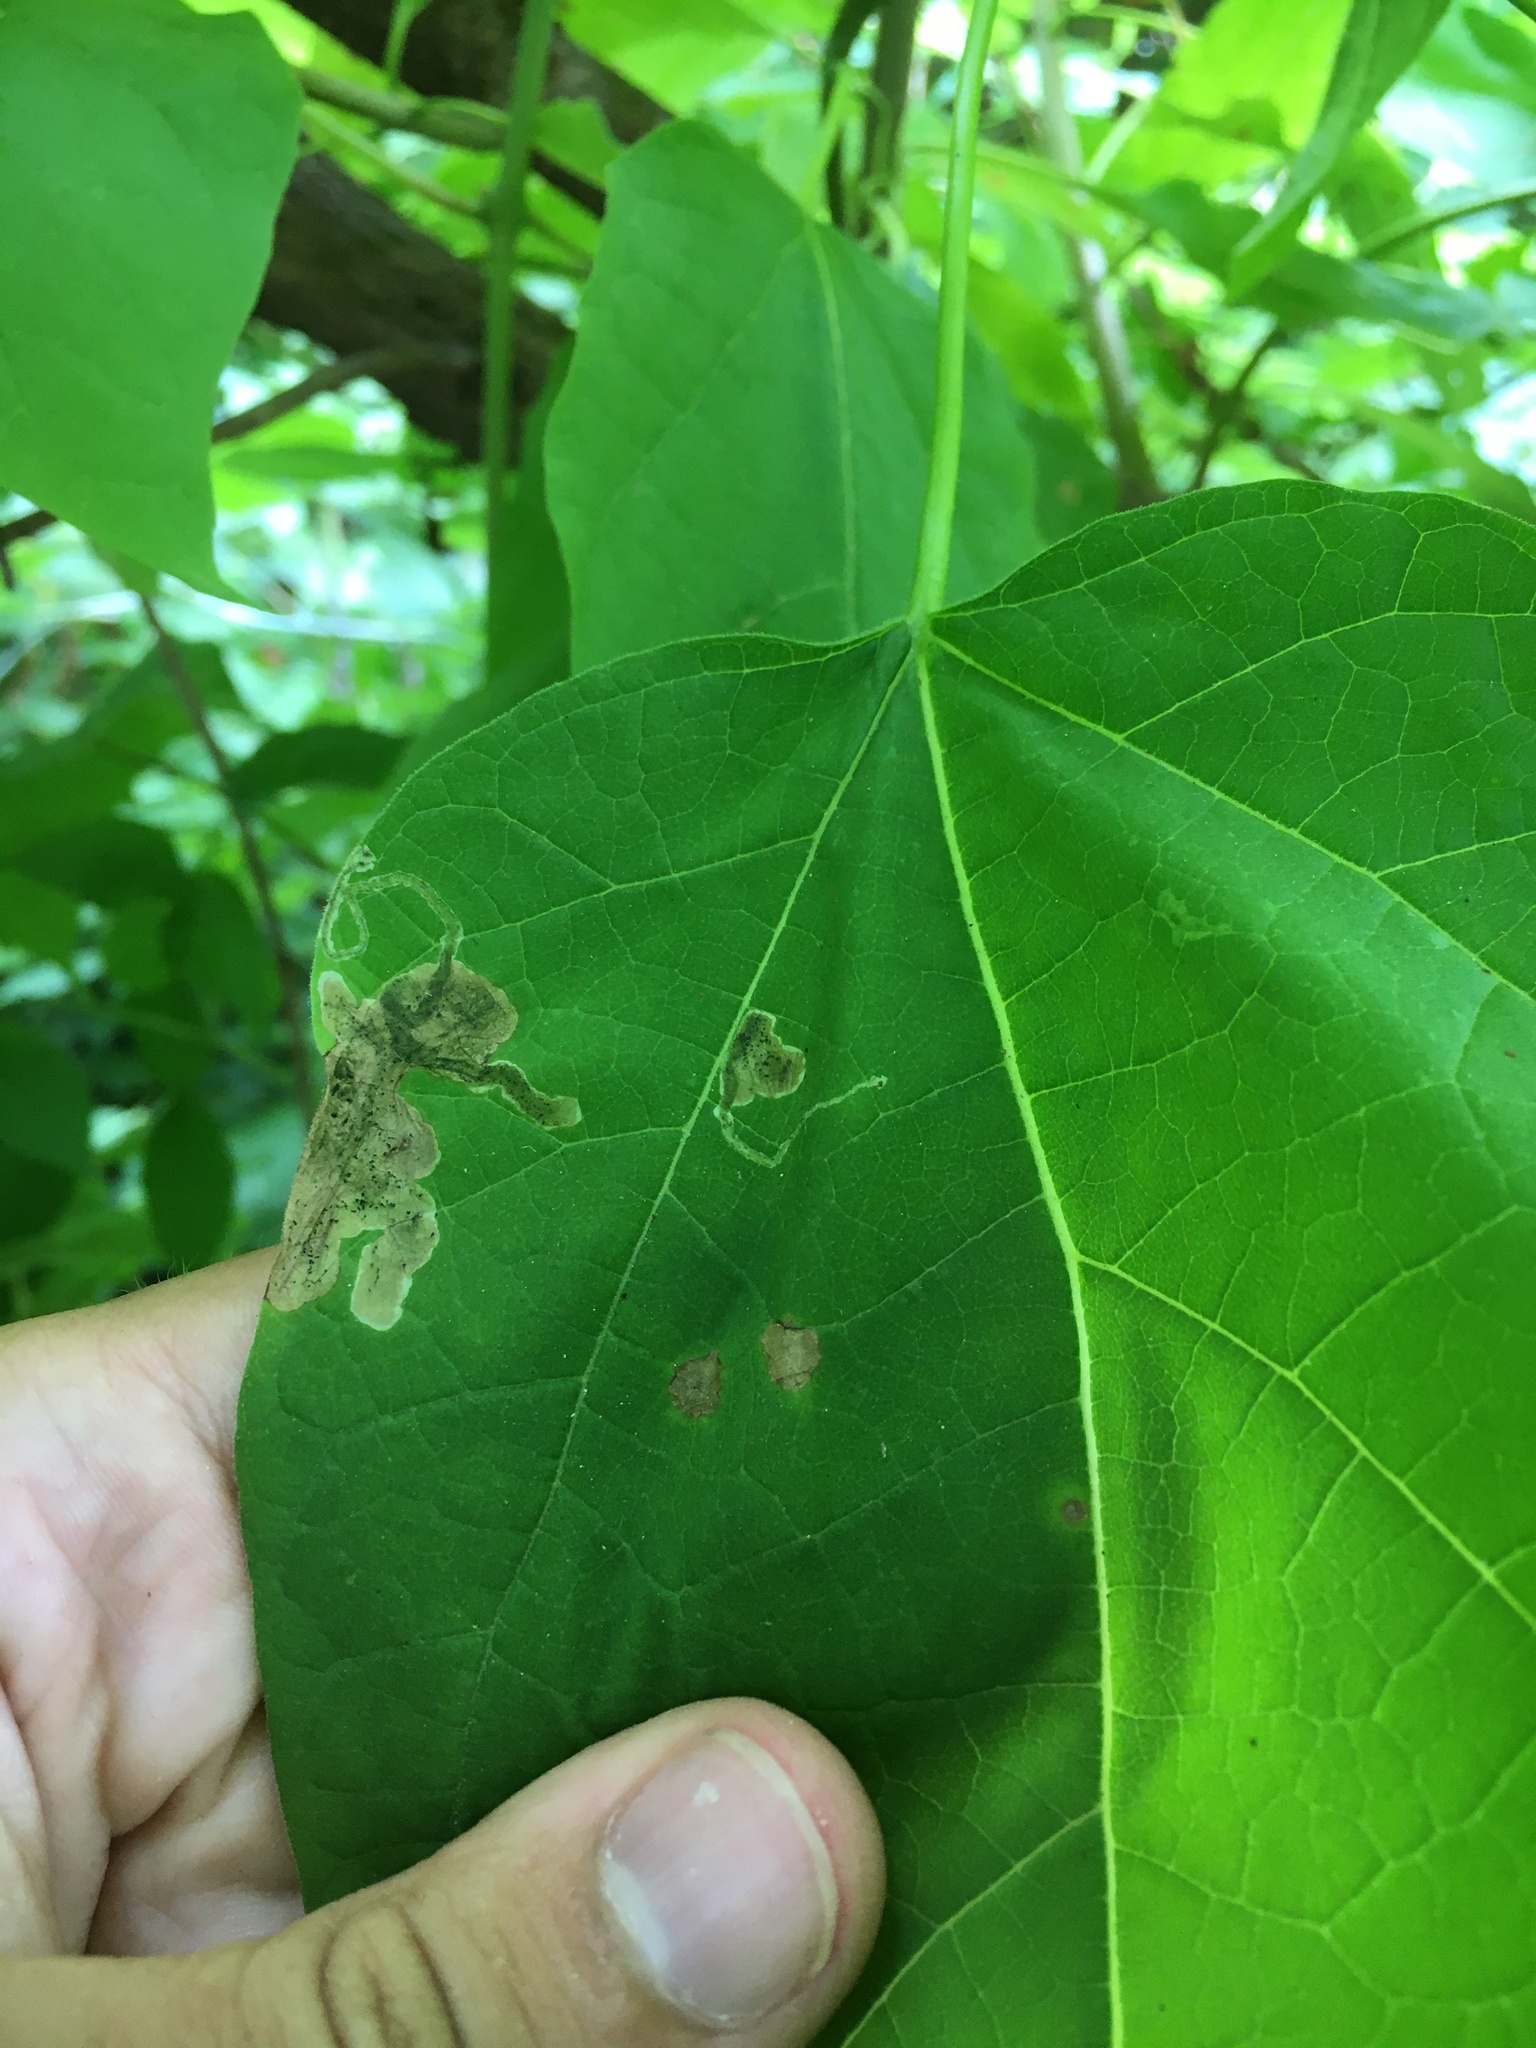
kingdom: Animalia
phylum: Arthropoda
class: Insecta
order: Diptera
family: Agromyzidae
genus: Amauromyza
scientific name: Amauromyza pleuralis
